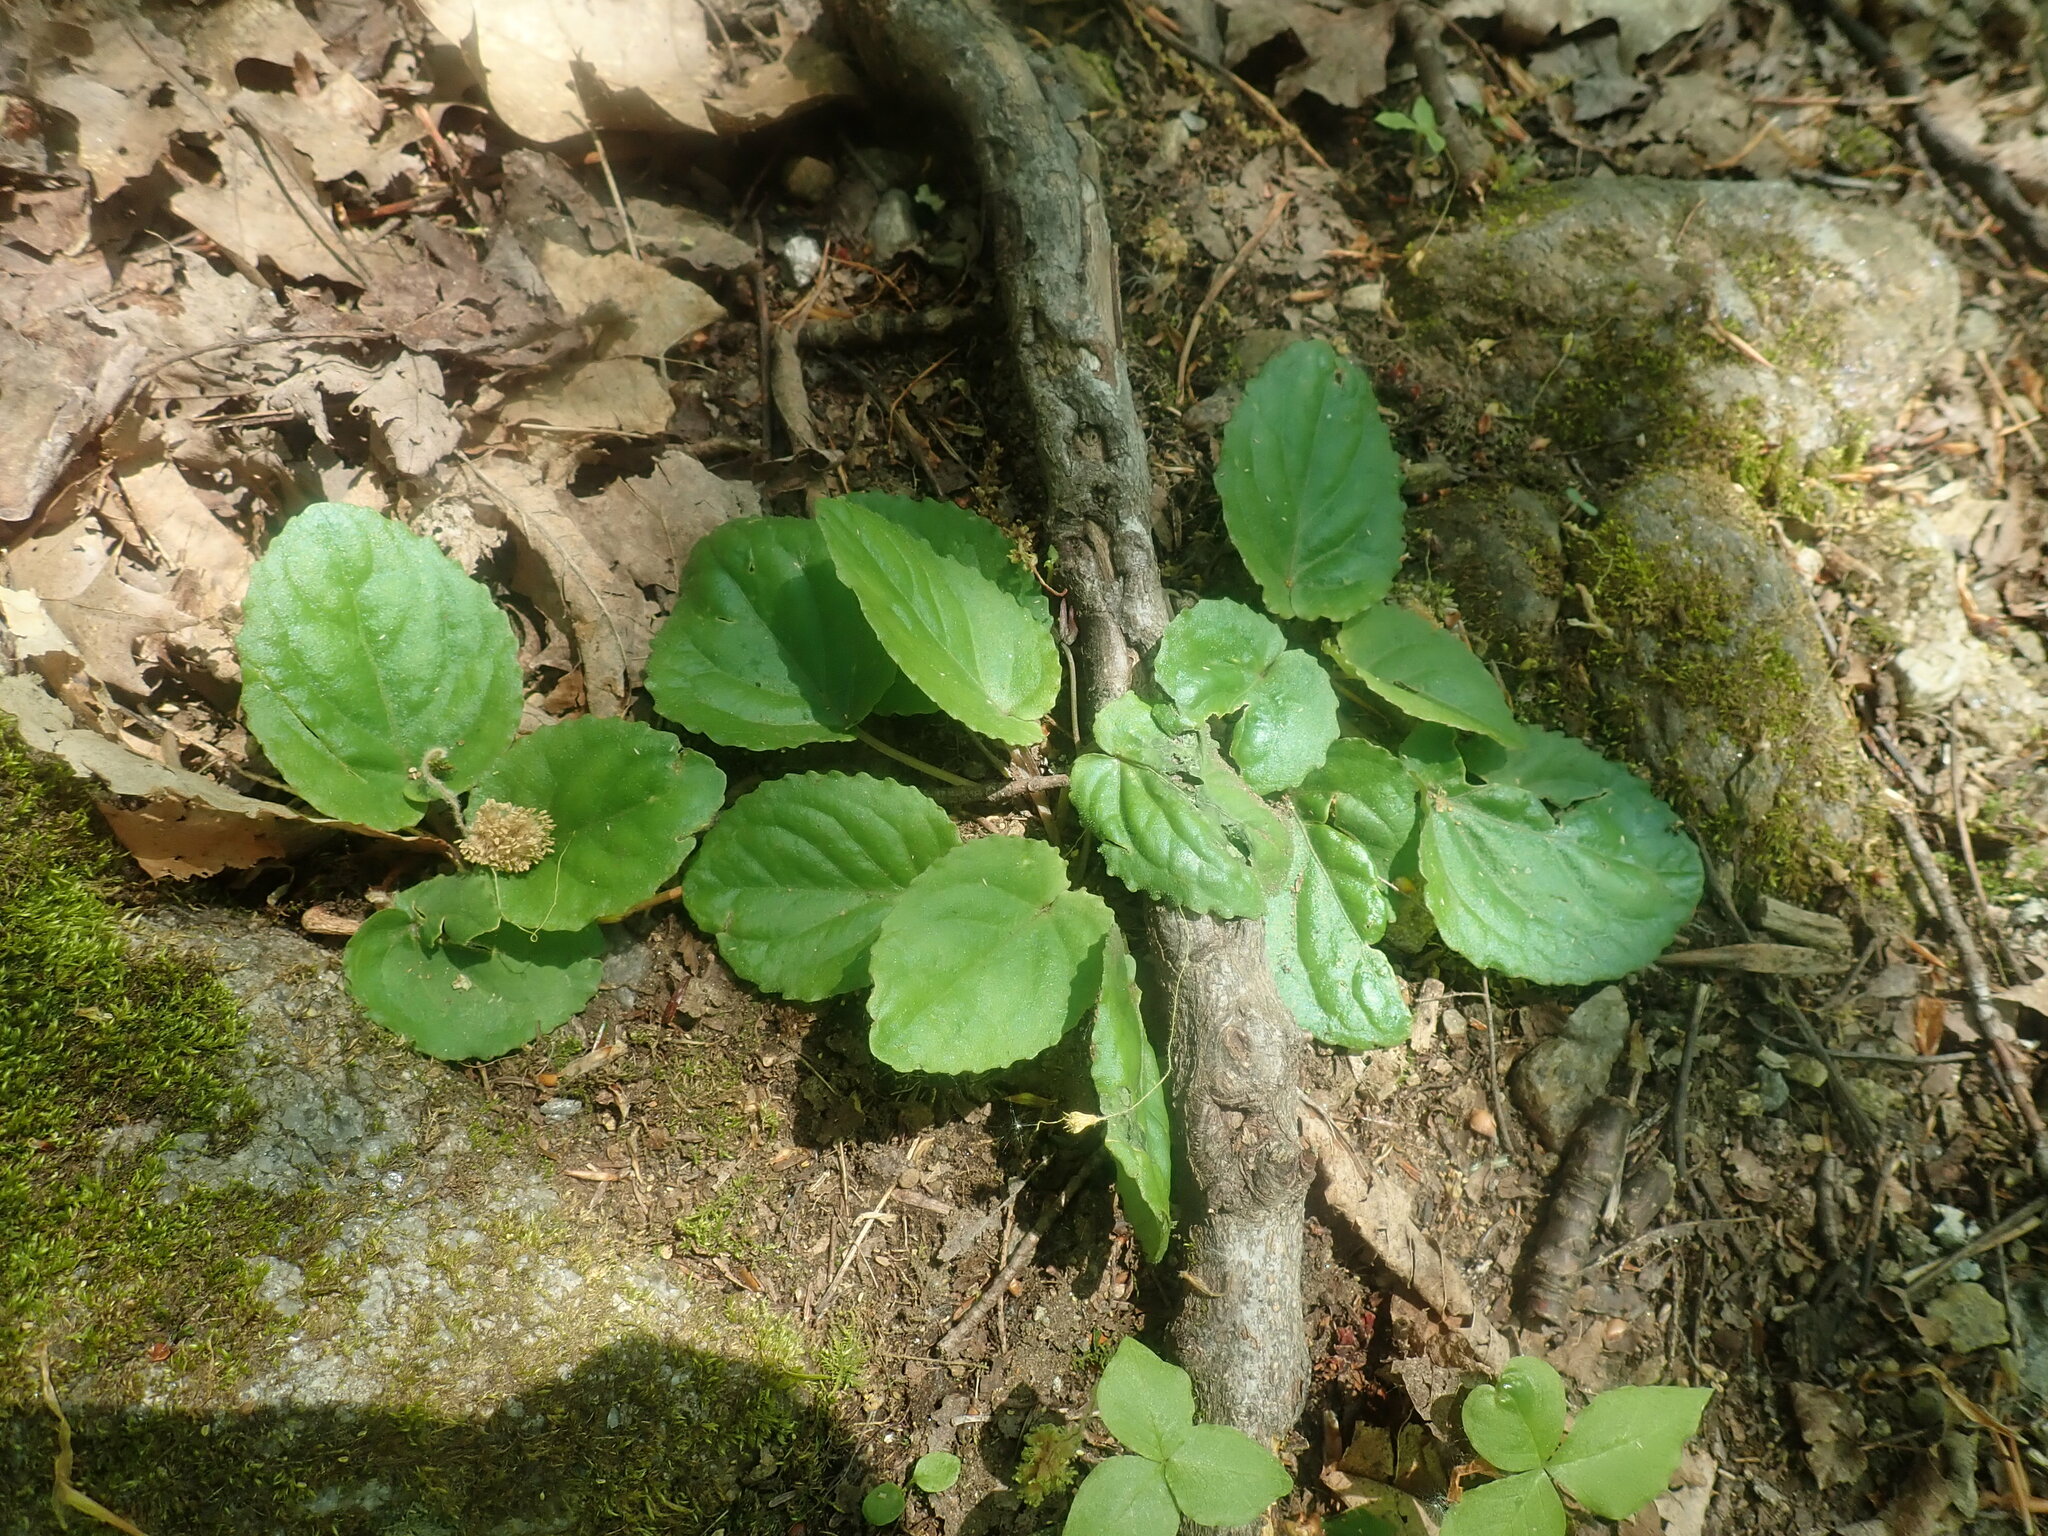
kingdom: Plantae
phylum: Tracheophyta
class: Magnoliopsida
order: Malpighiales
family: Violaceae
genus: Viola
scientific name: Viola rotundifolia
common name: Early yellow violet
